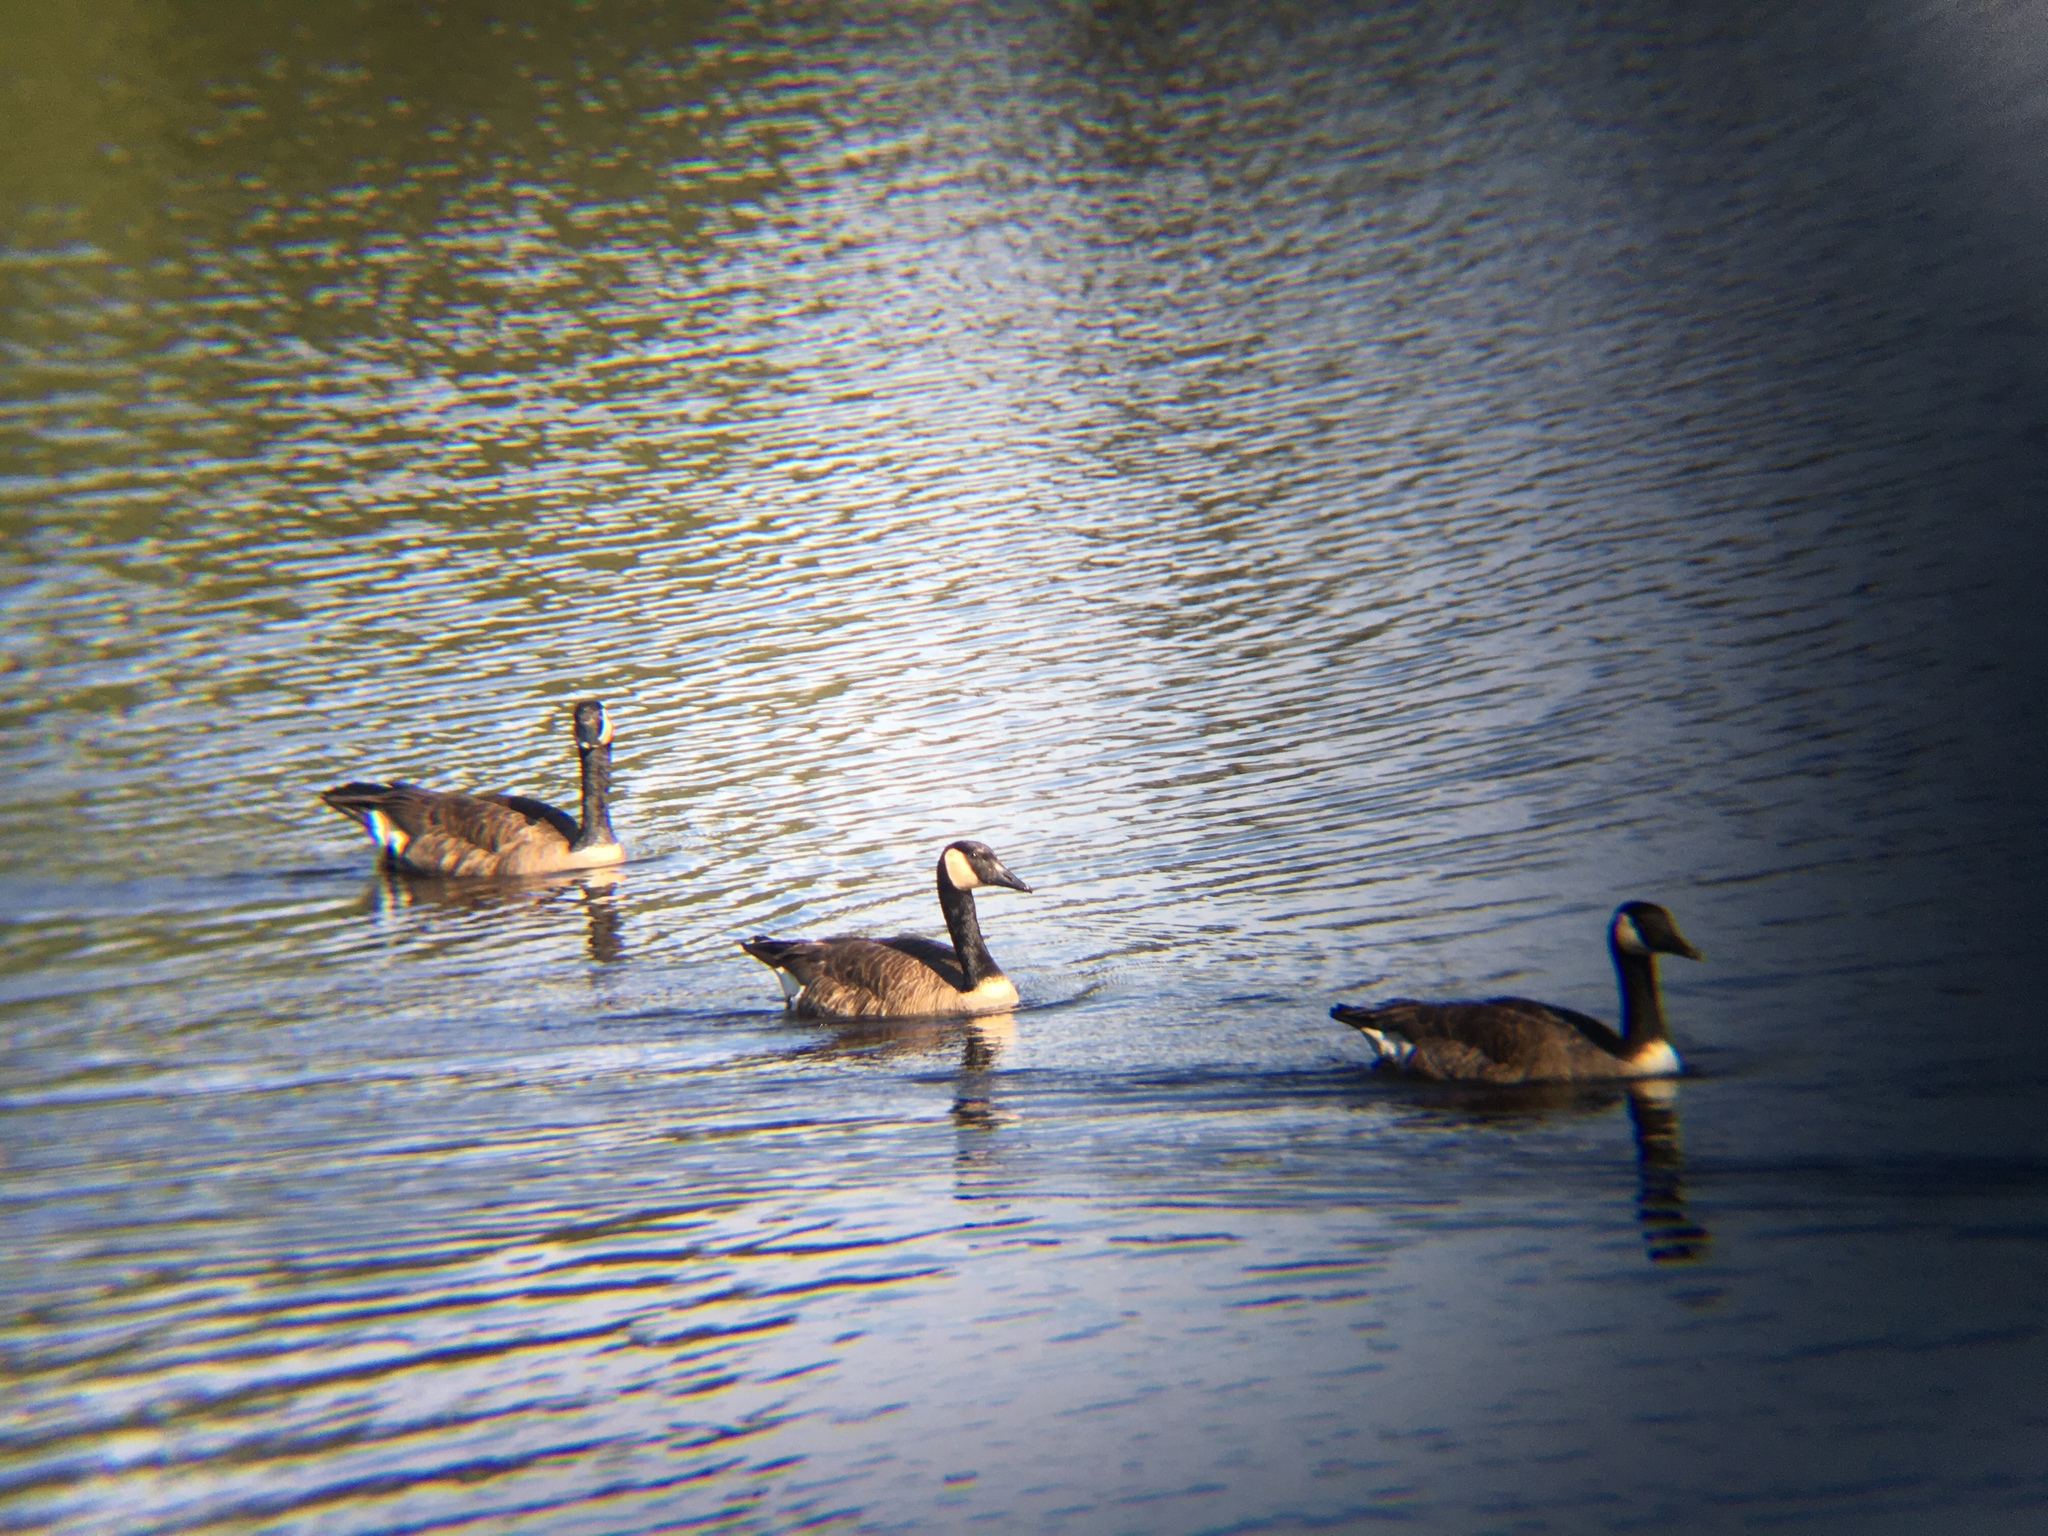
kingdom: Animalia
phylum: Chordata
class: Aves
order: Anseriformes
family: Anatidae
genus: Branta
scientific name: Branta canadensis
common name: Canada goose
